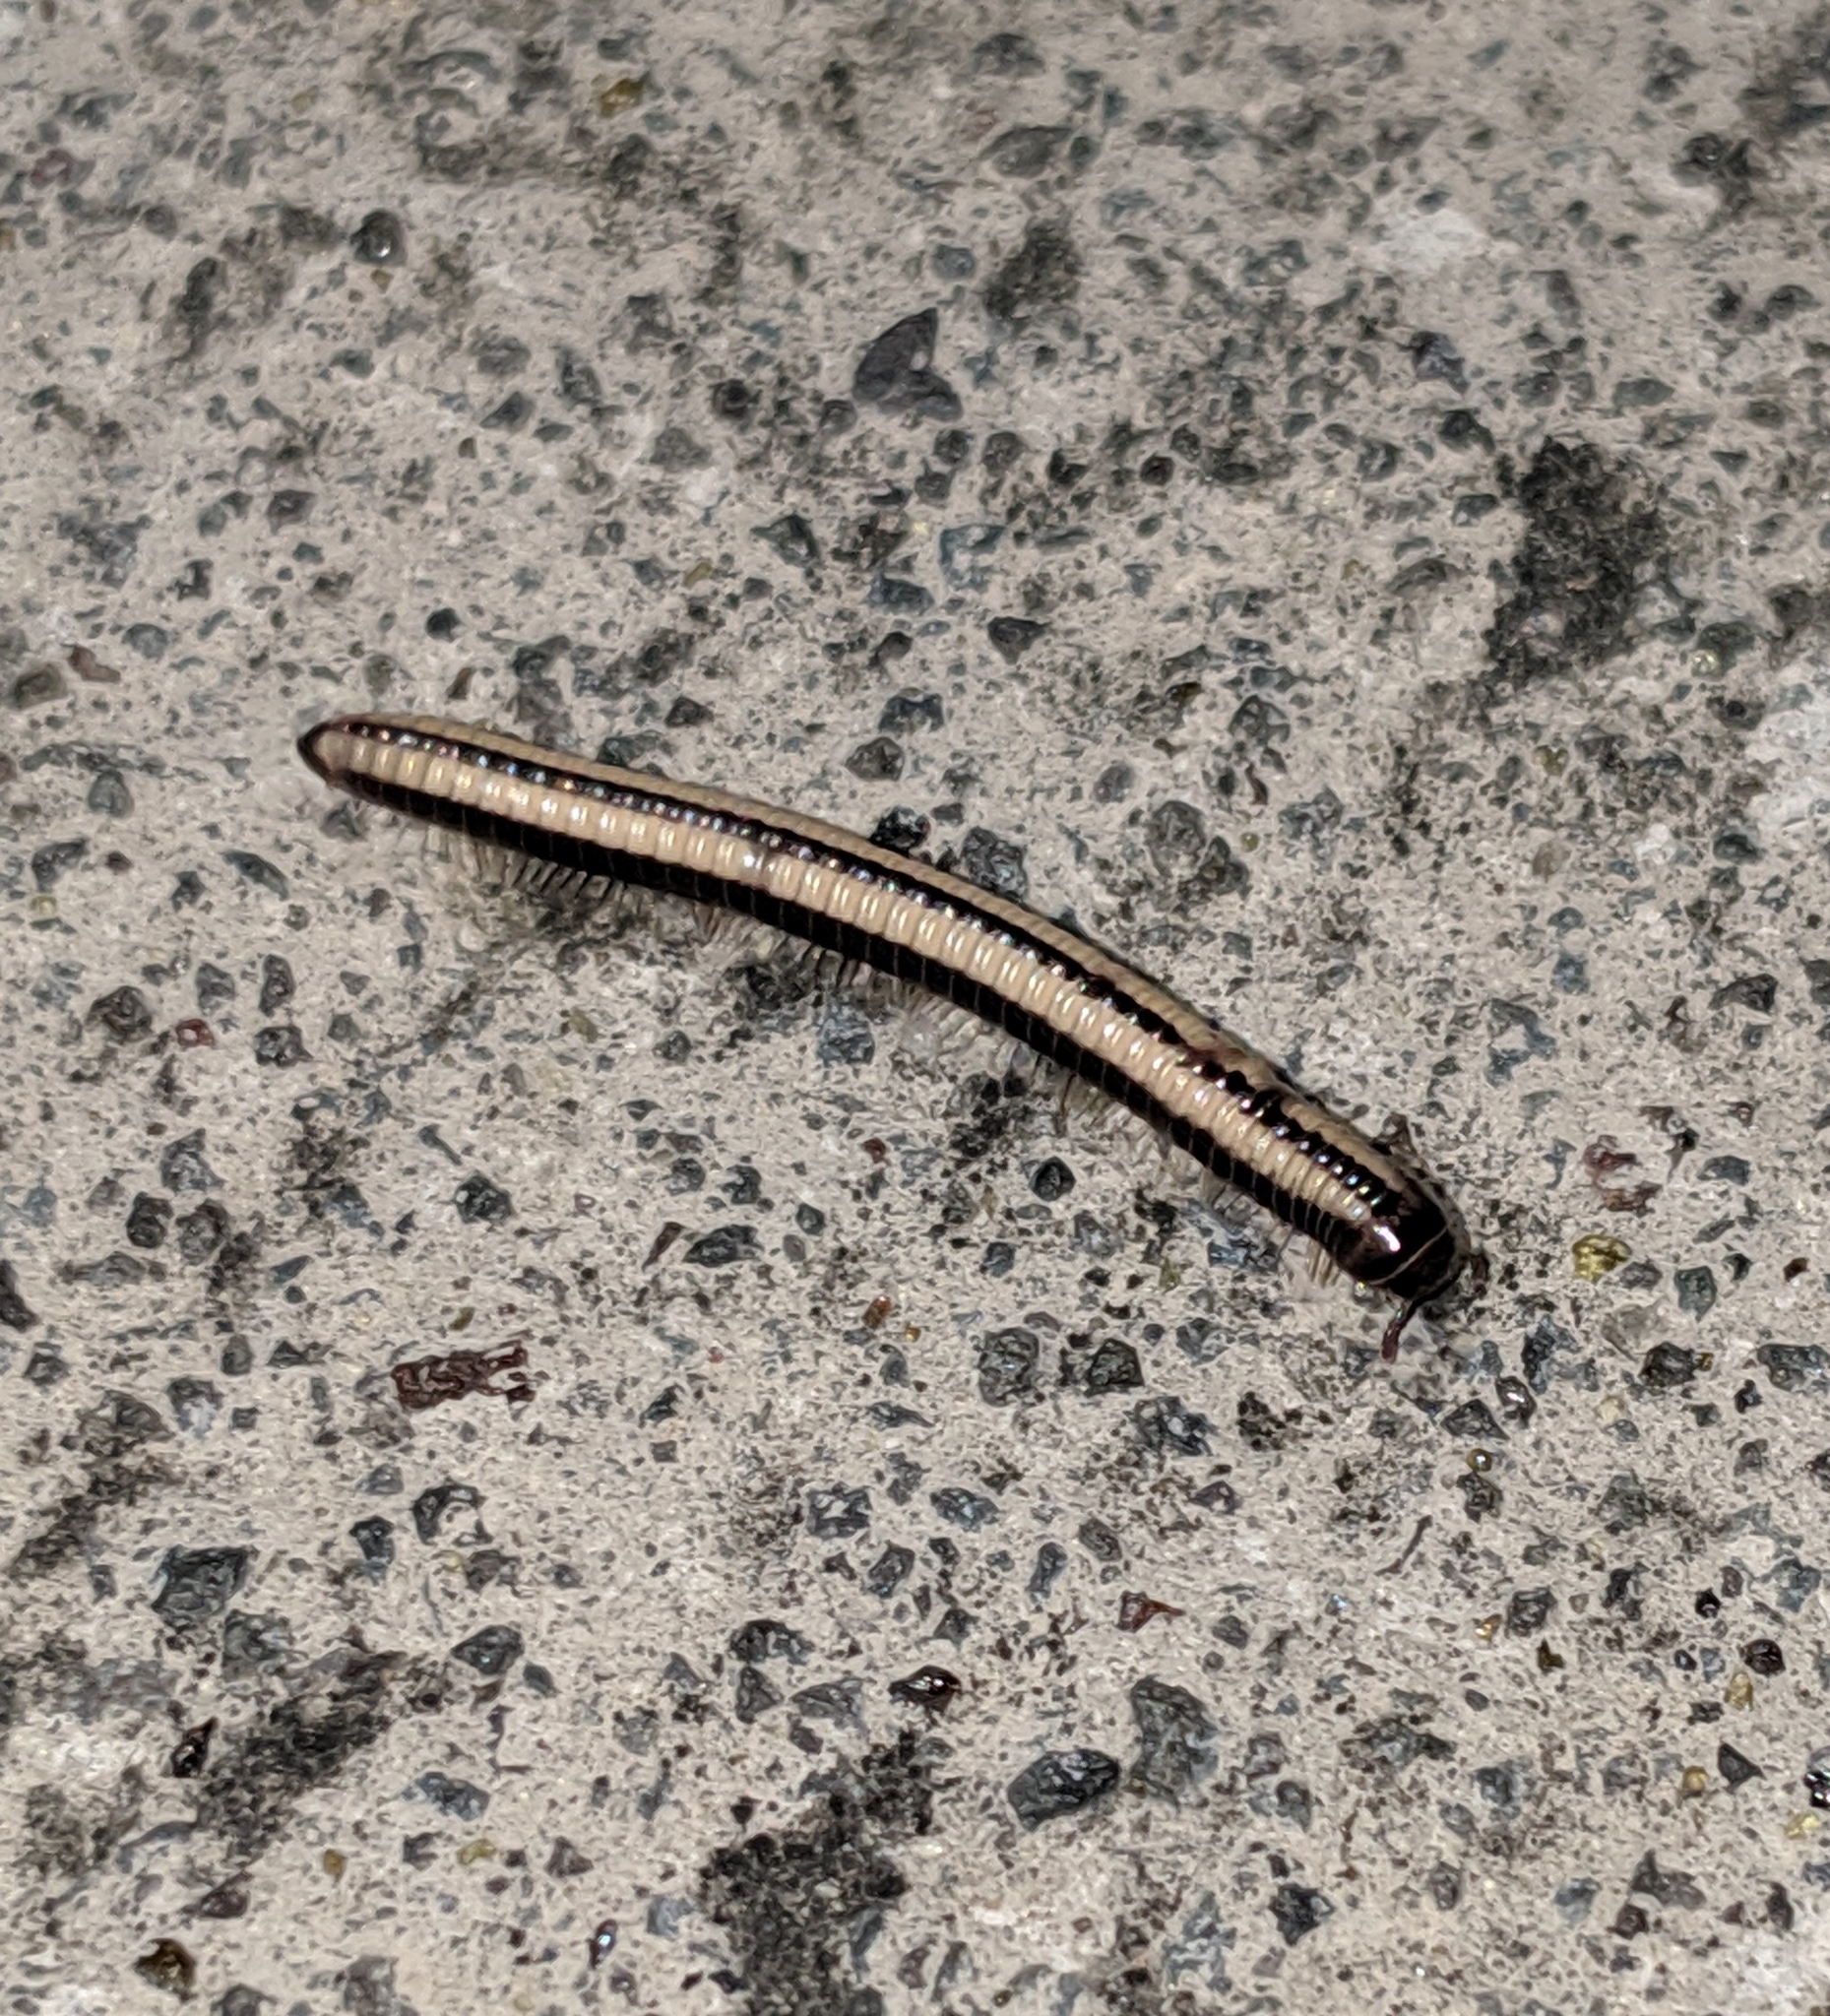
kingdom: Animalia
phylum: Arthropoda
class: Diplopoda
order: Spirobolida
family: Spirobolellidae
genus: Spirobolellus
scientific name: Spirobolellus immigrans
